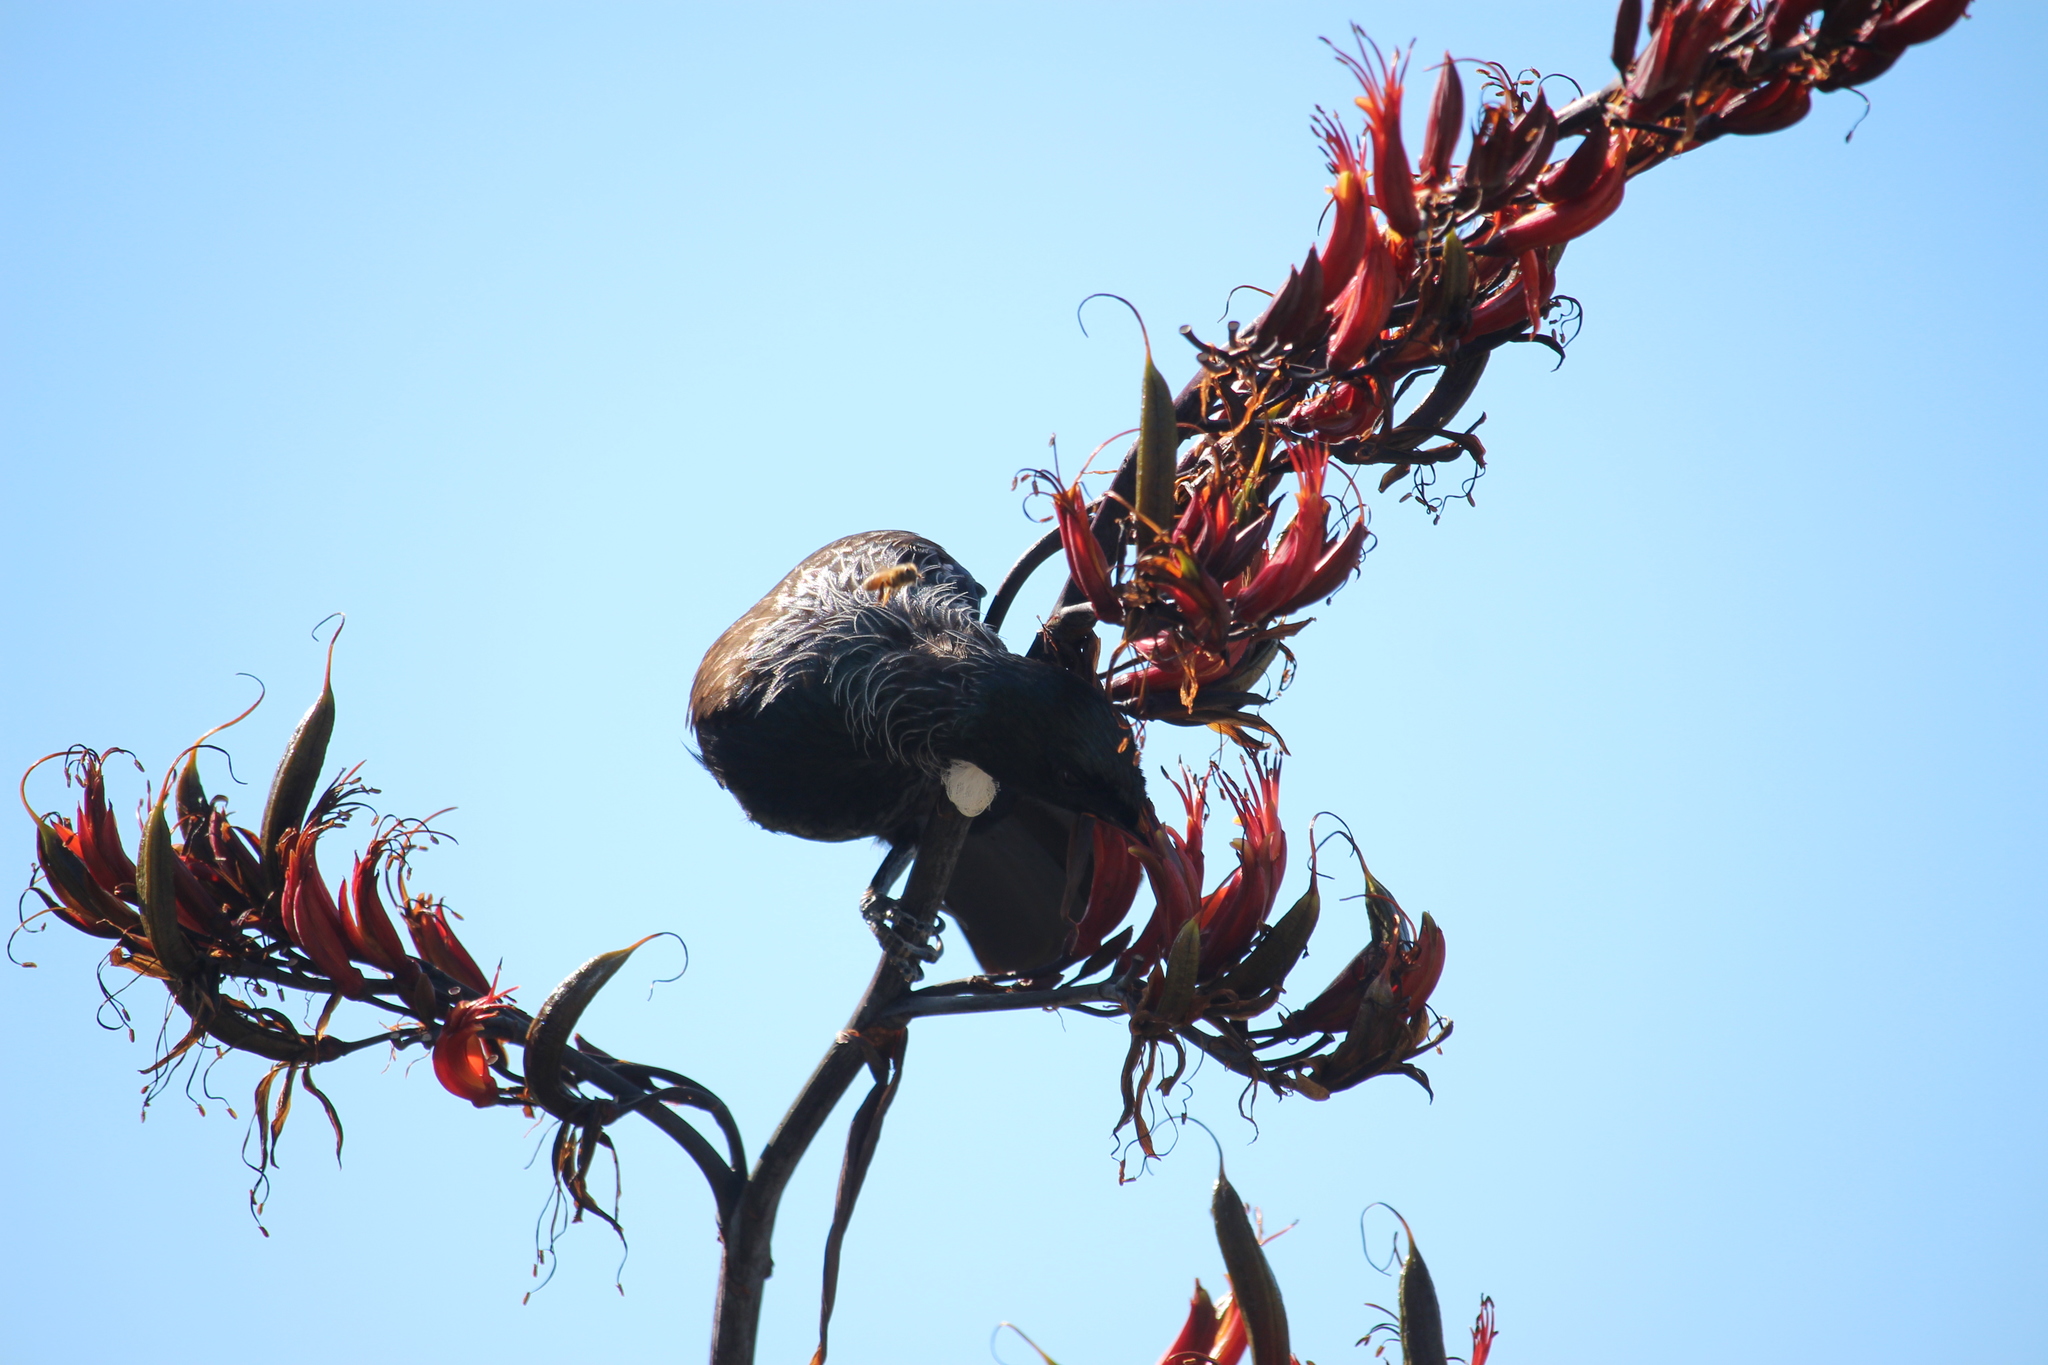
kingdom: Animalia
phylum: Chordata
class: Aves
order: Passeriformes
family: Meliphagidae
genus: Prosthemadera
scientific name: Prosthemadera novaeseelandiae
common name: Tui
